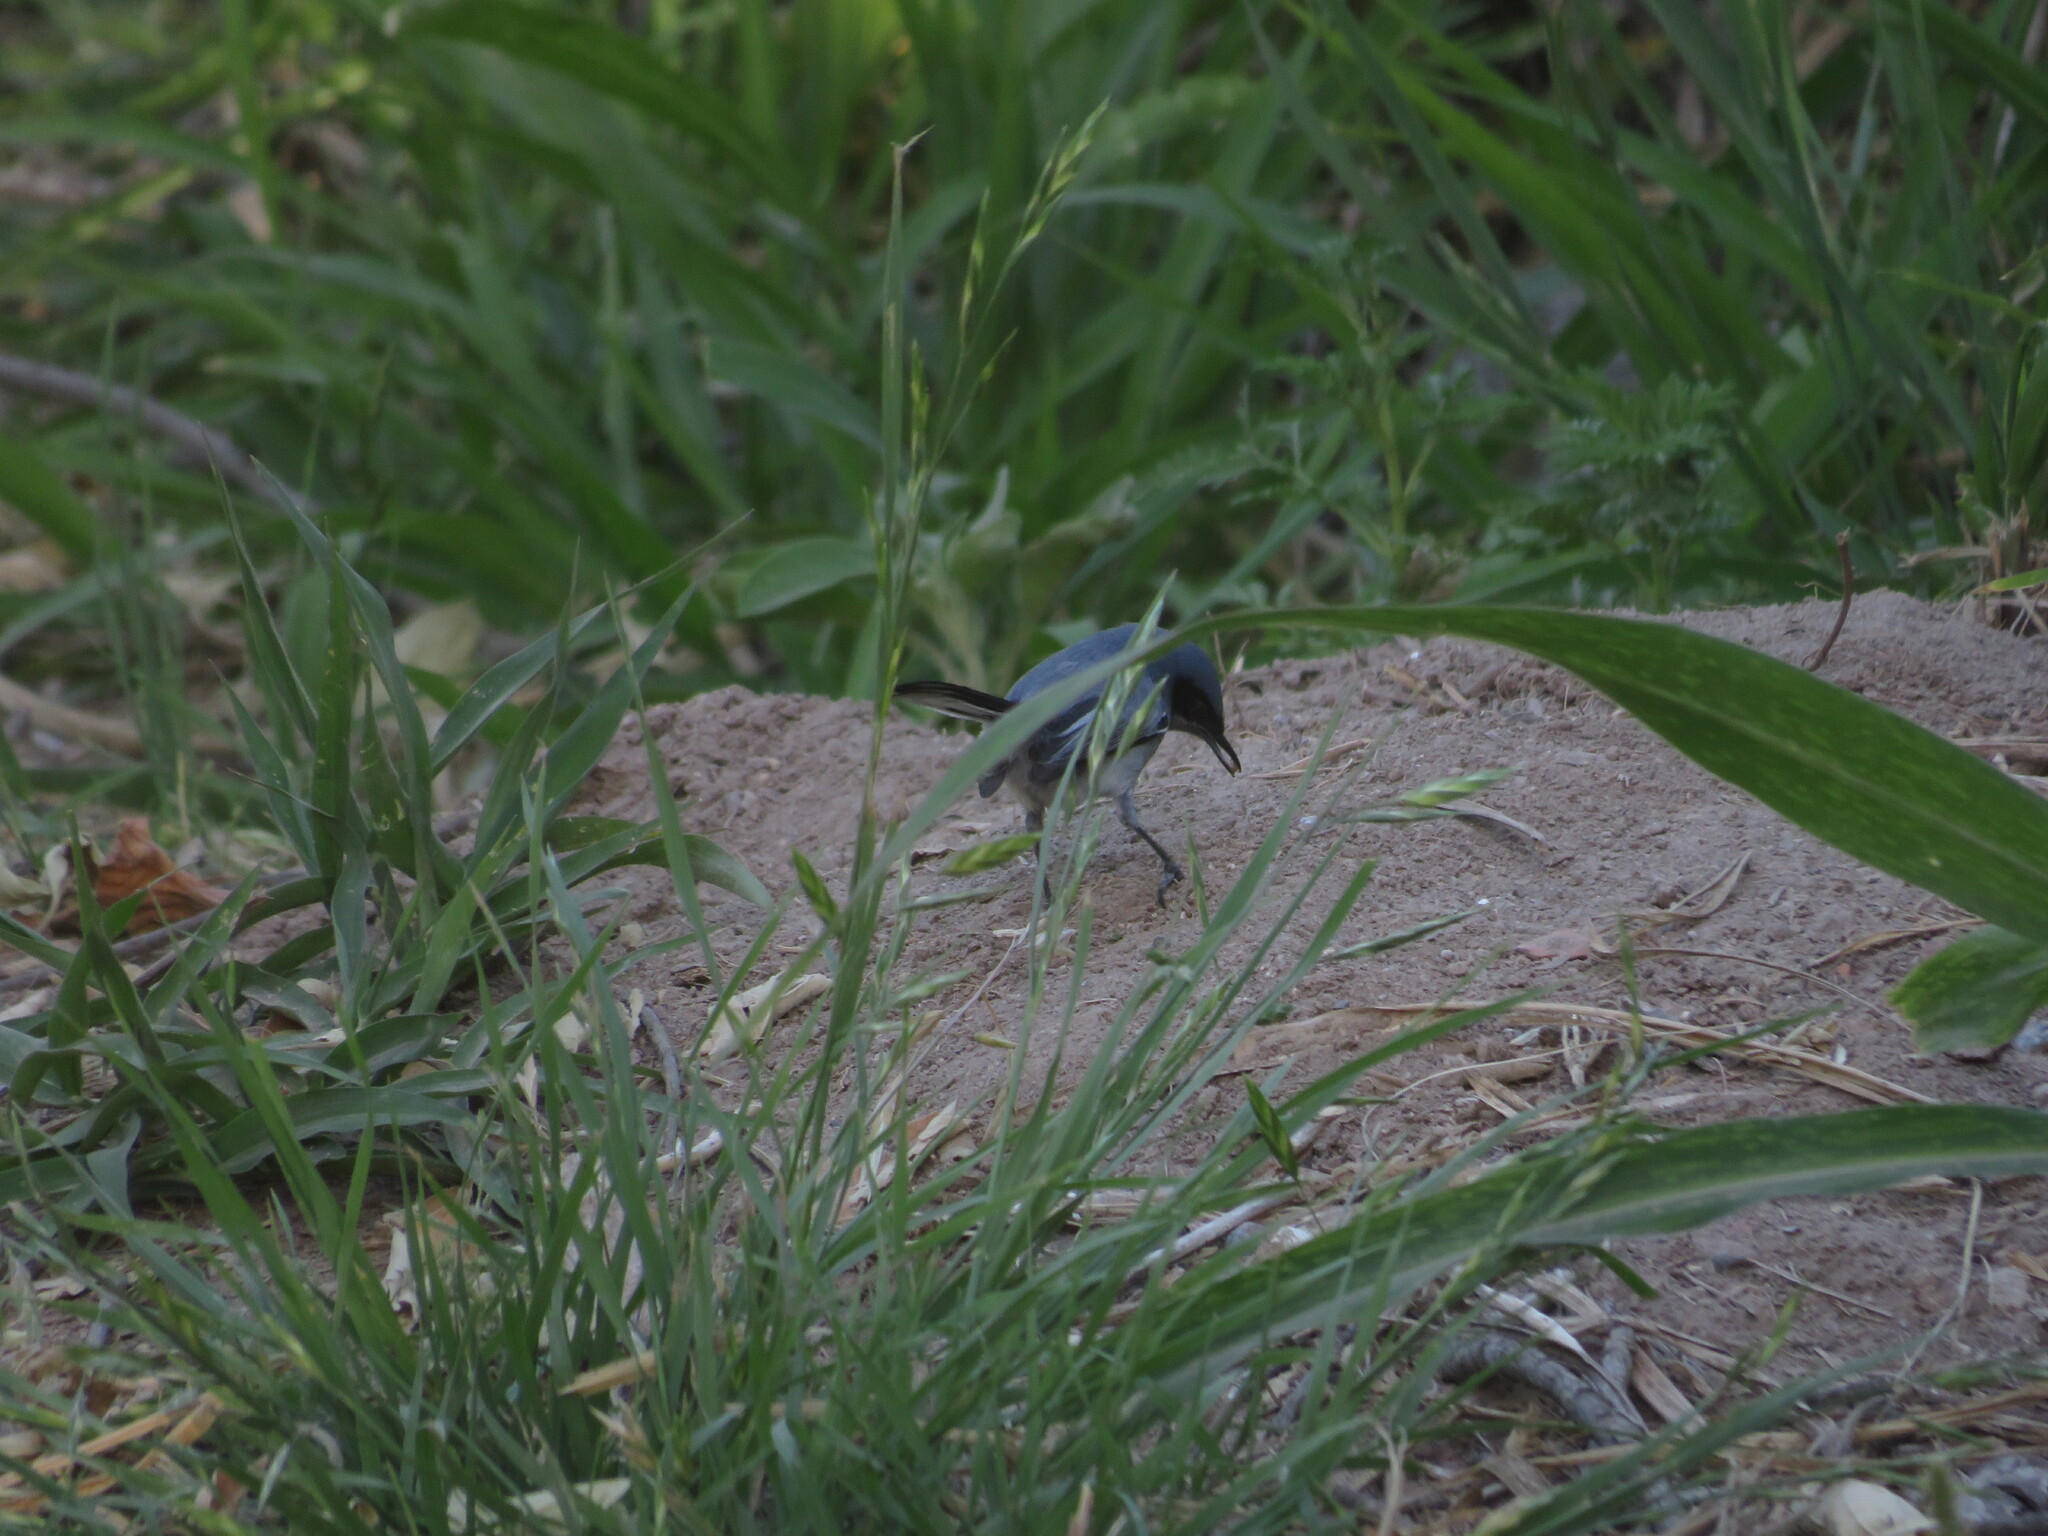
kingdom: Animalia
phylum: Chordata
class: Aves
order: Passeriformes
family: Polioptilidae
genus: Polioptila
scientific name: Polioptila dumicola
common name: Masked gnatcatcher
